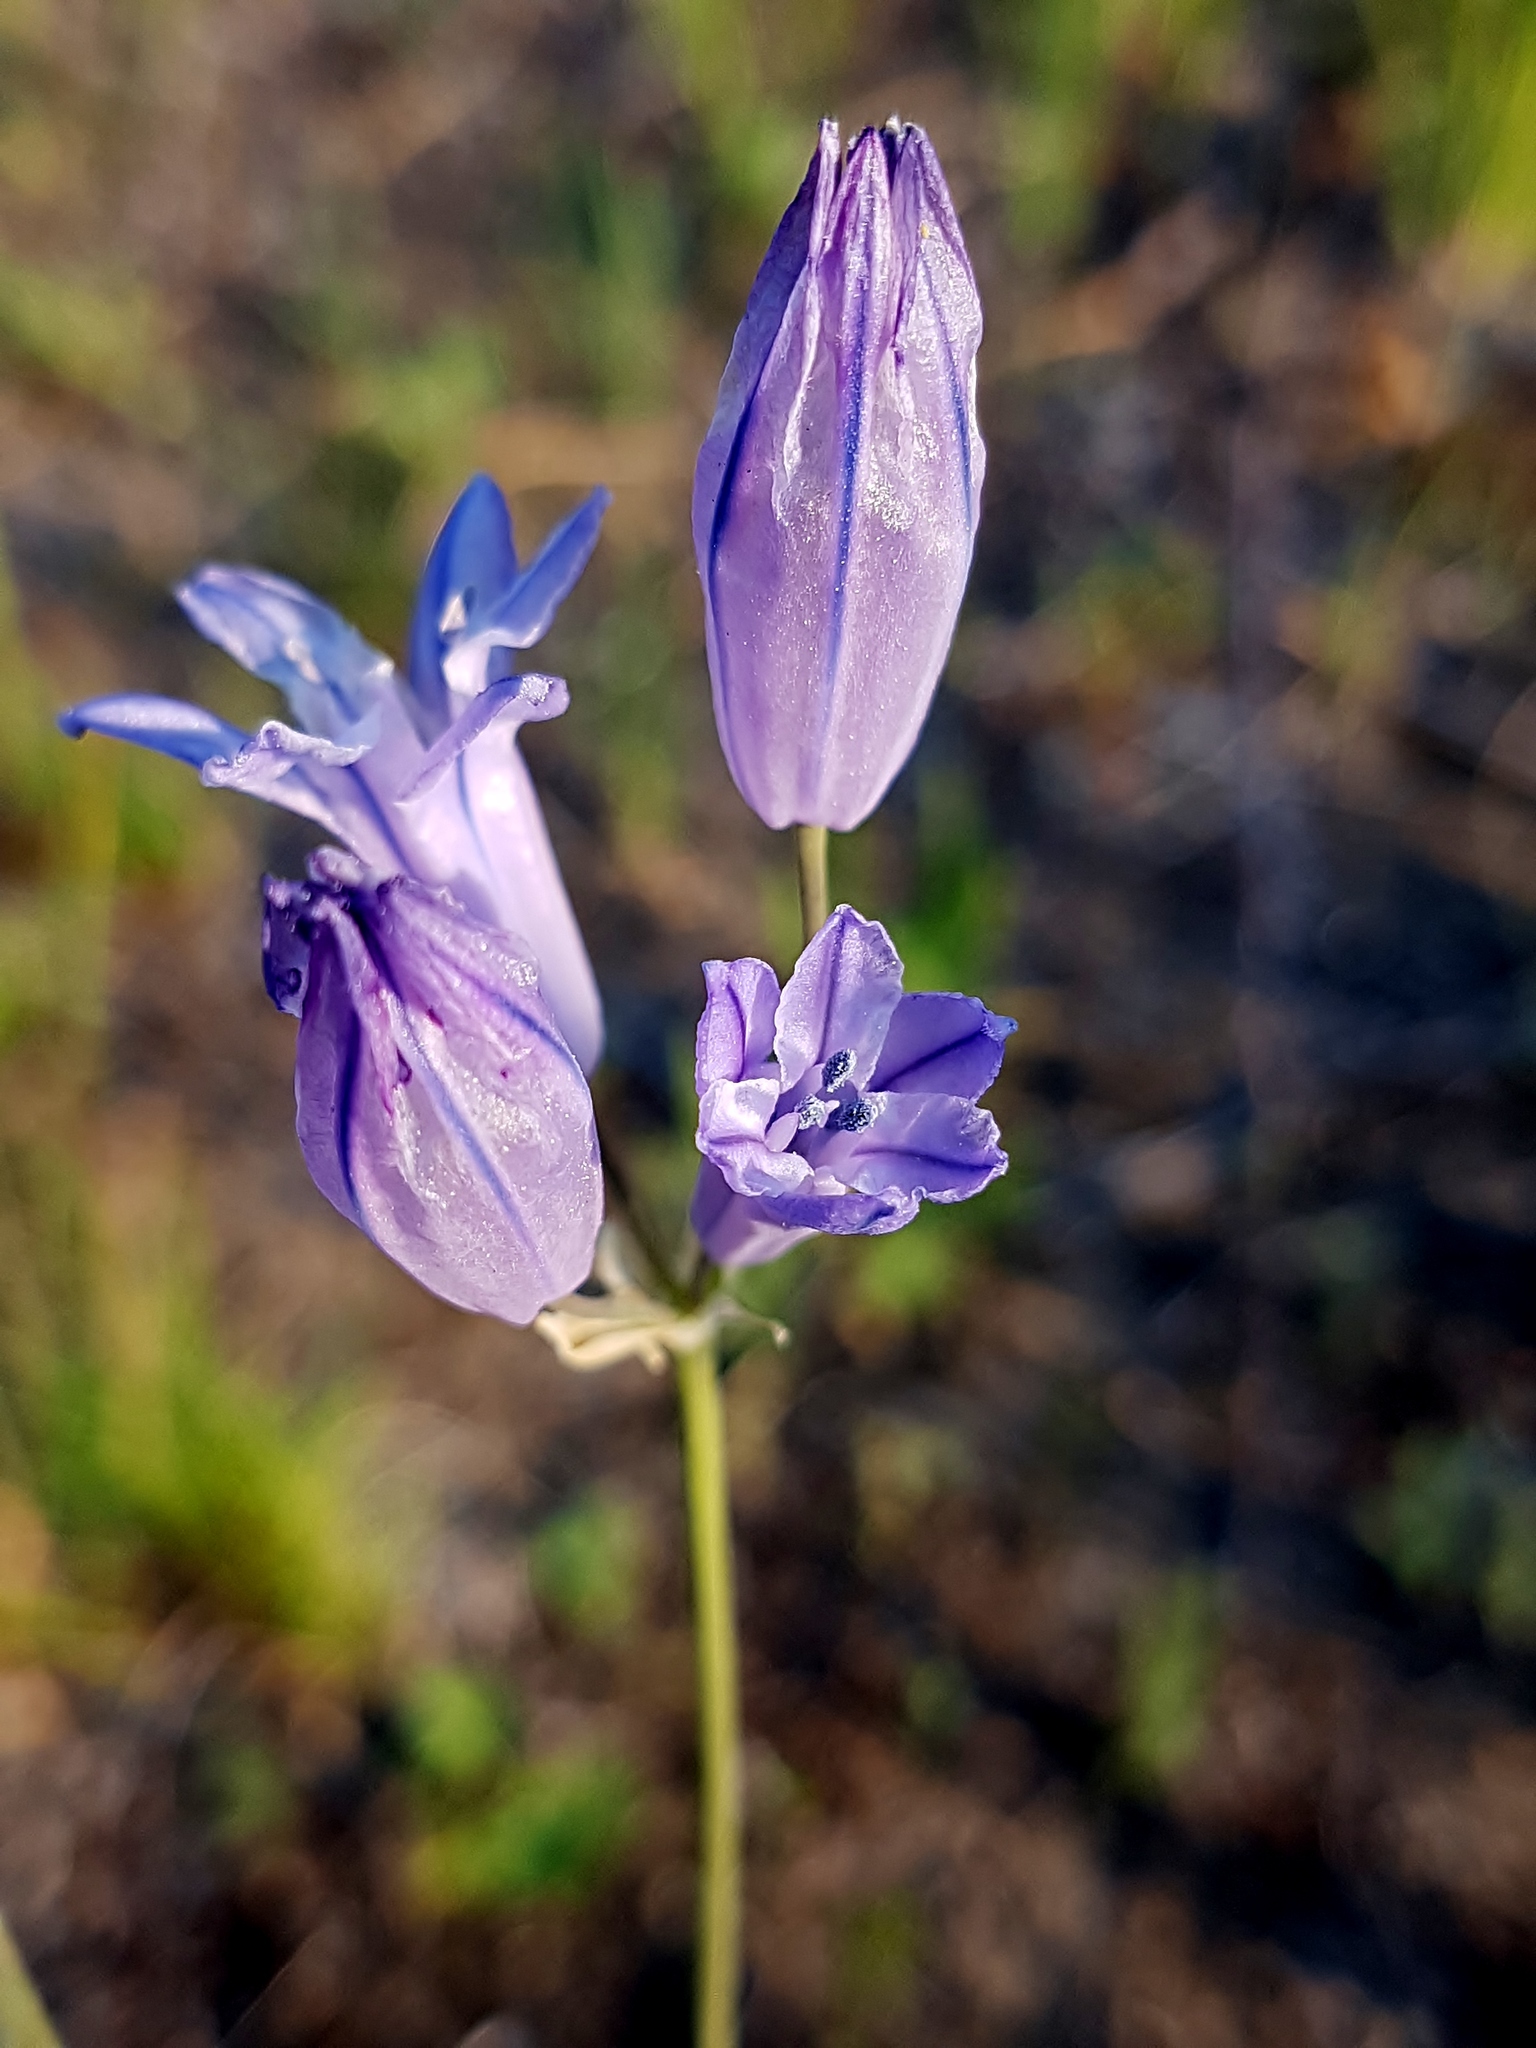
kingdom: Plantae
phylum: Tracheophyta
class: Liliopsida
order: Asparagales
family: Asparagaceae
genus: Triteleia
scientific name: Triteleia grandiflora
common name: Wild hyacinth
